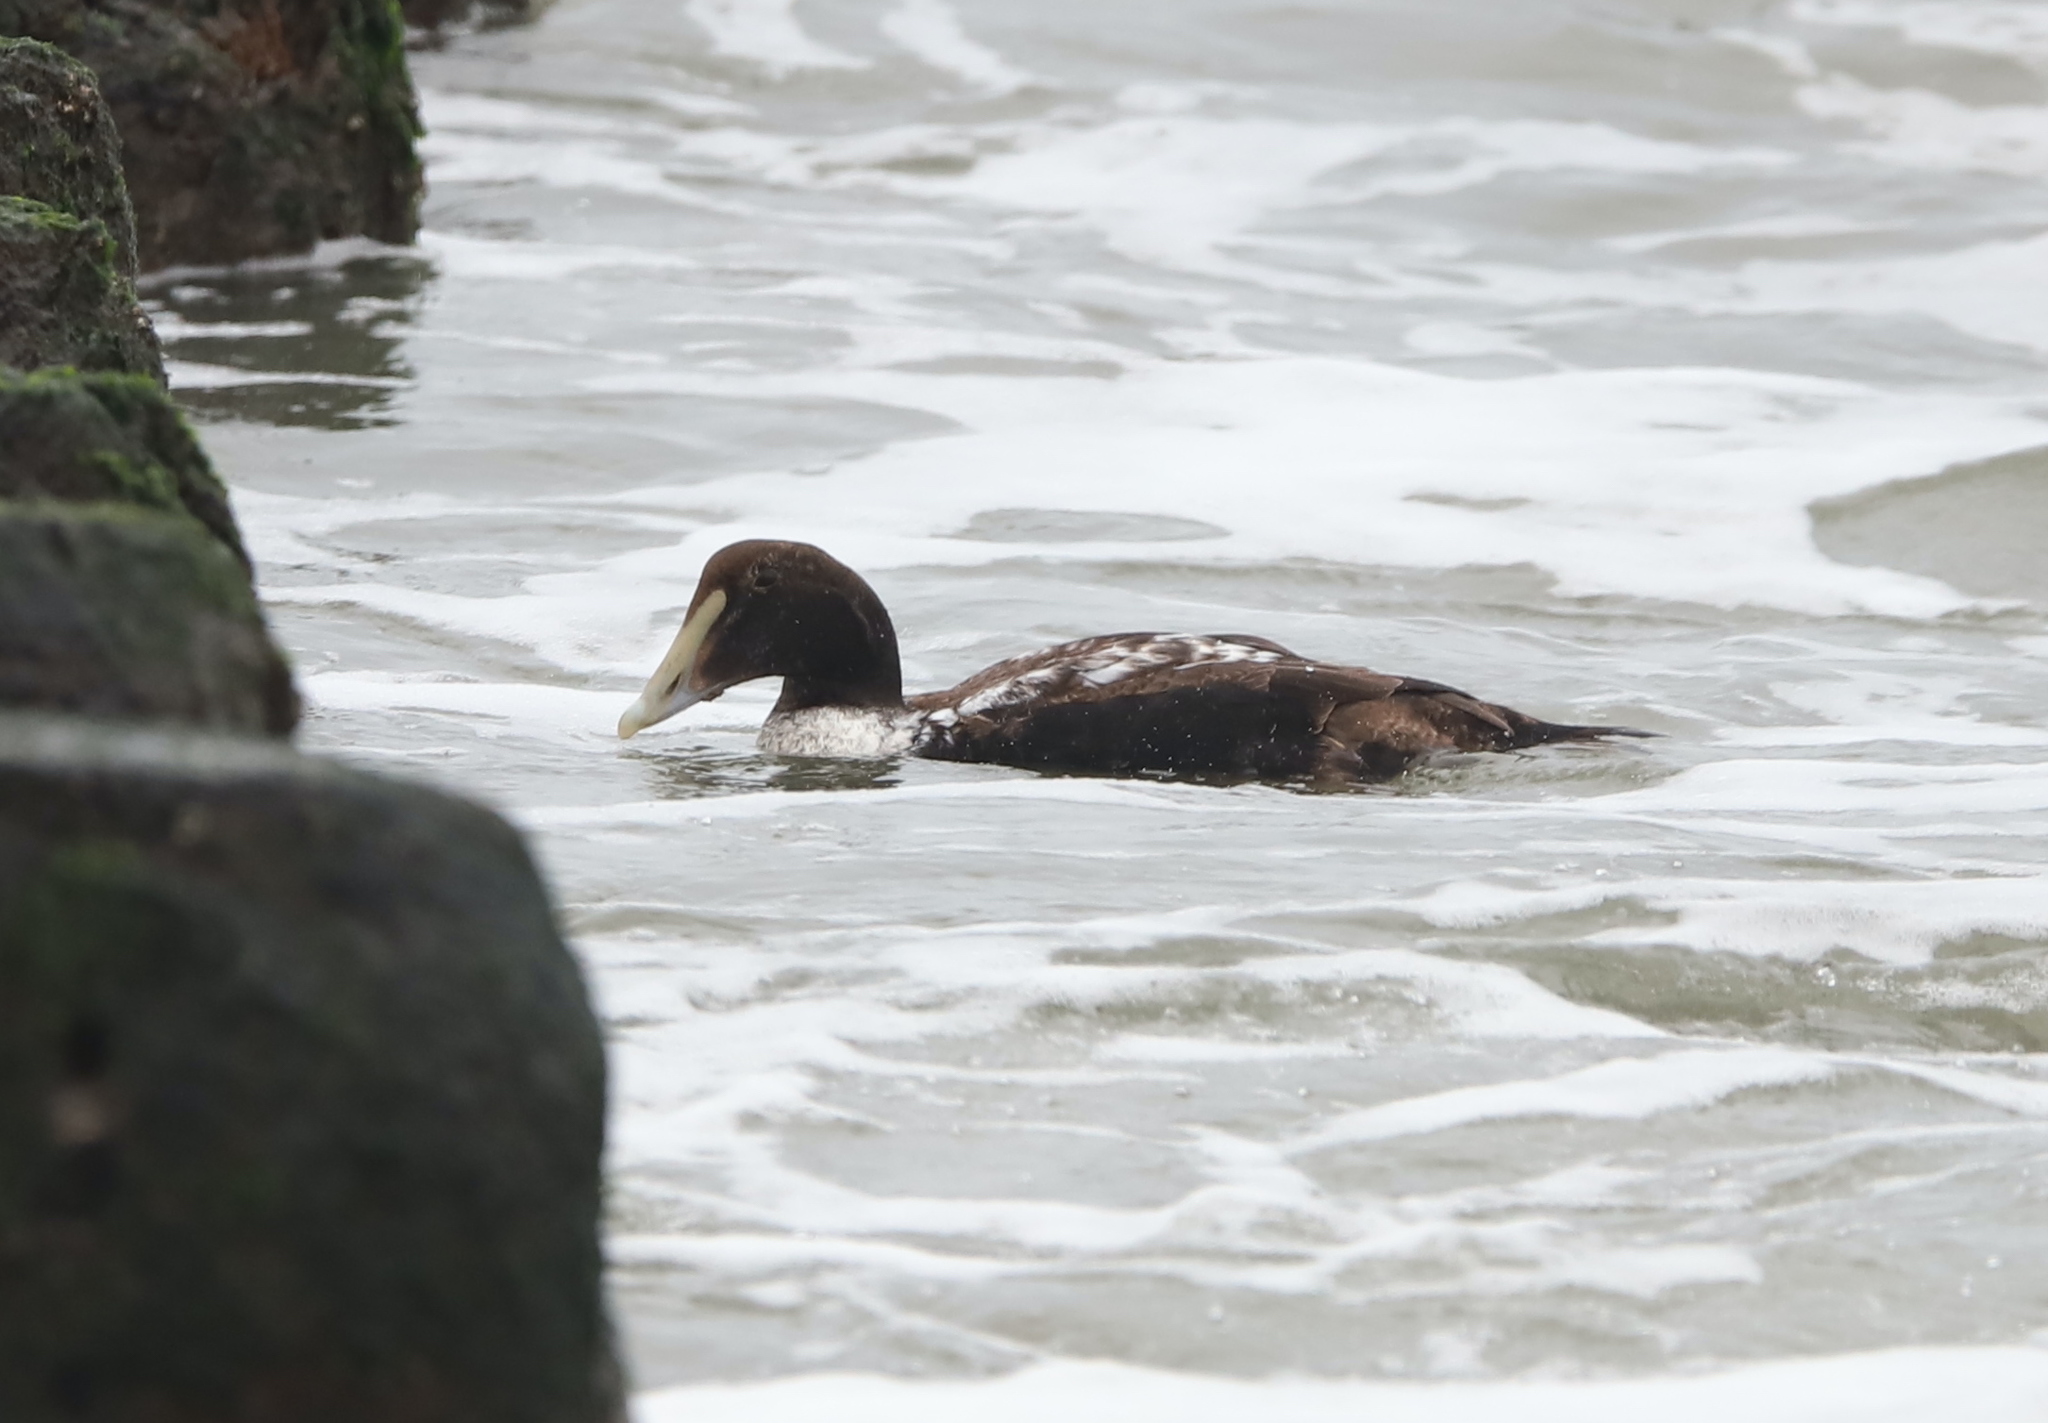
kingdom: Animalia
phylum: Chordata
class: Aves
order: Anseriformes
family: Anatidae
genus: Somateria
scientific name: Somateria mollissima
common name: Common eider
